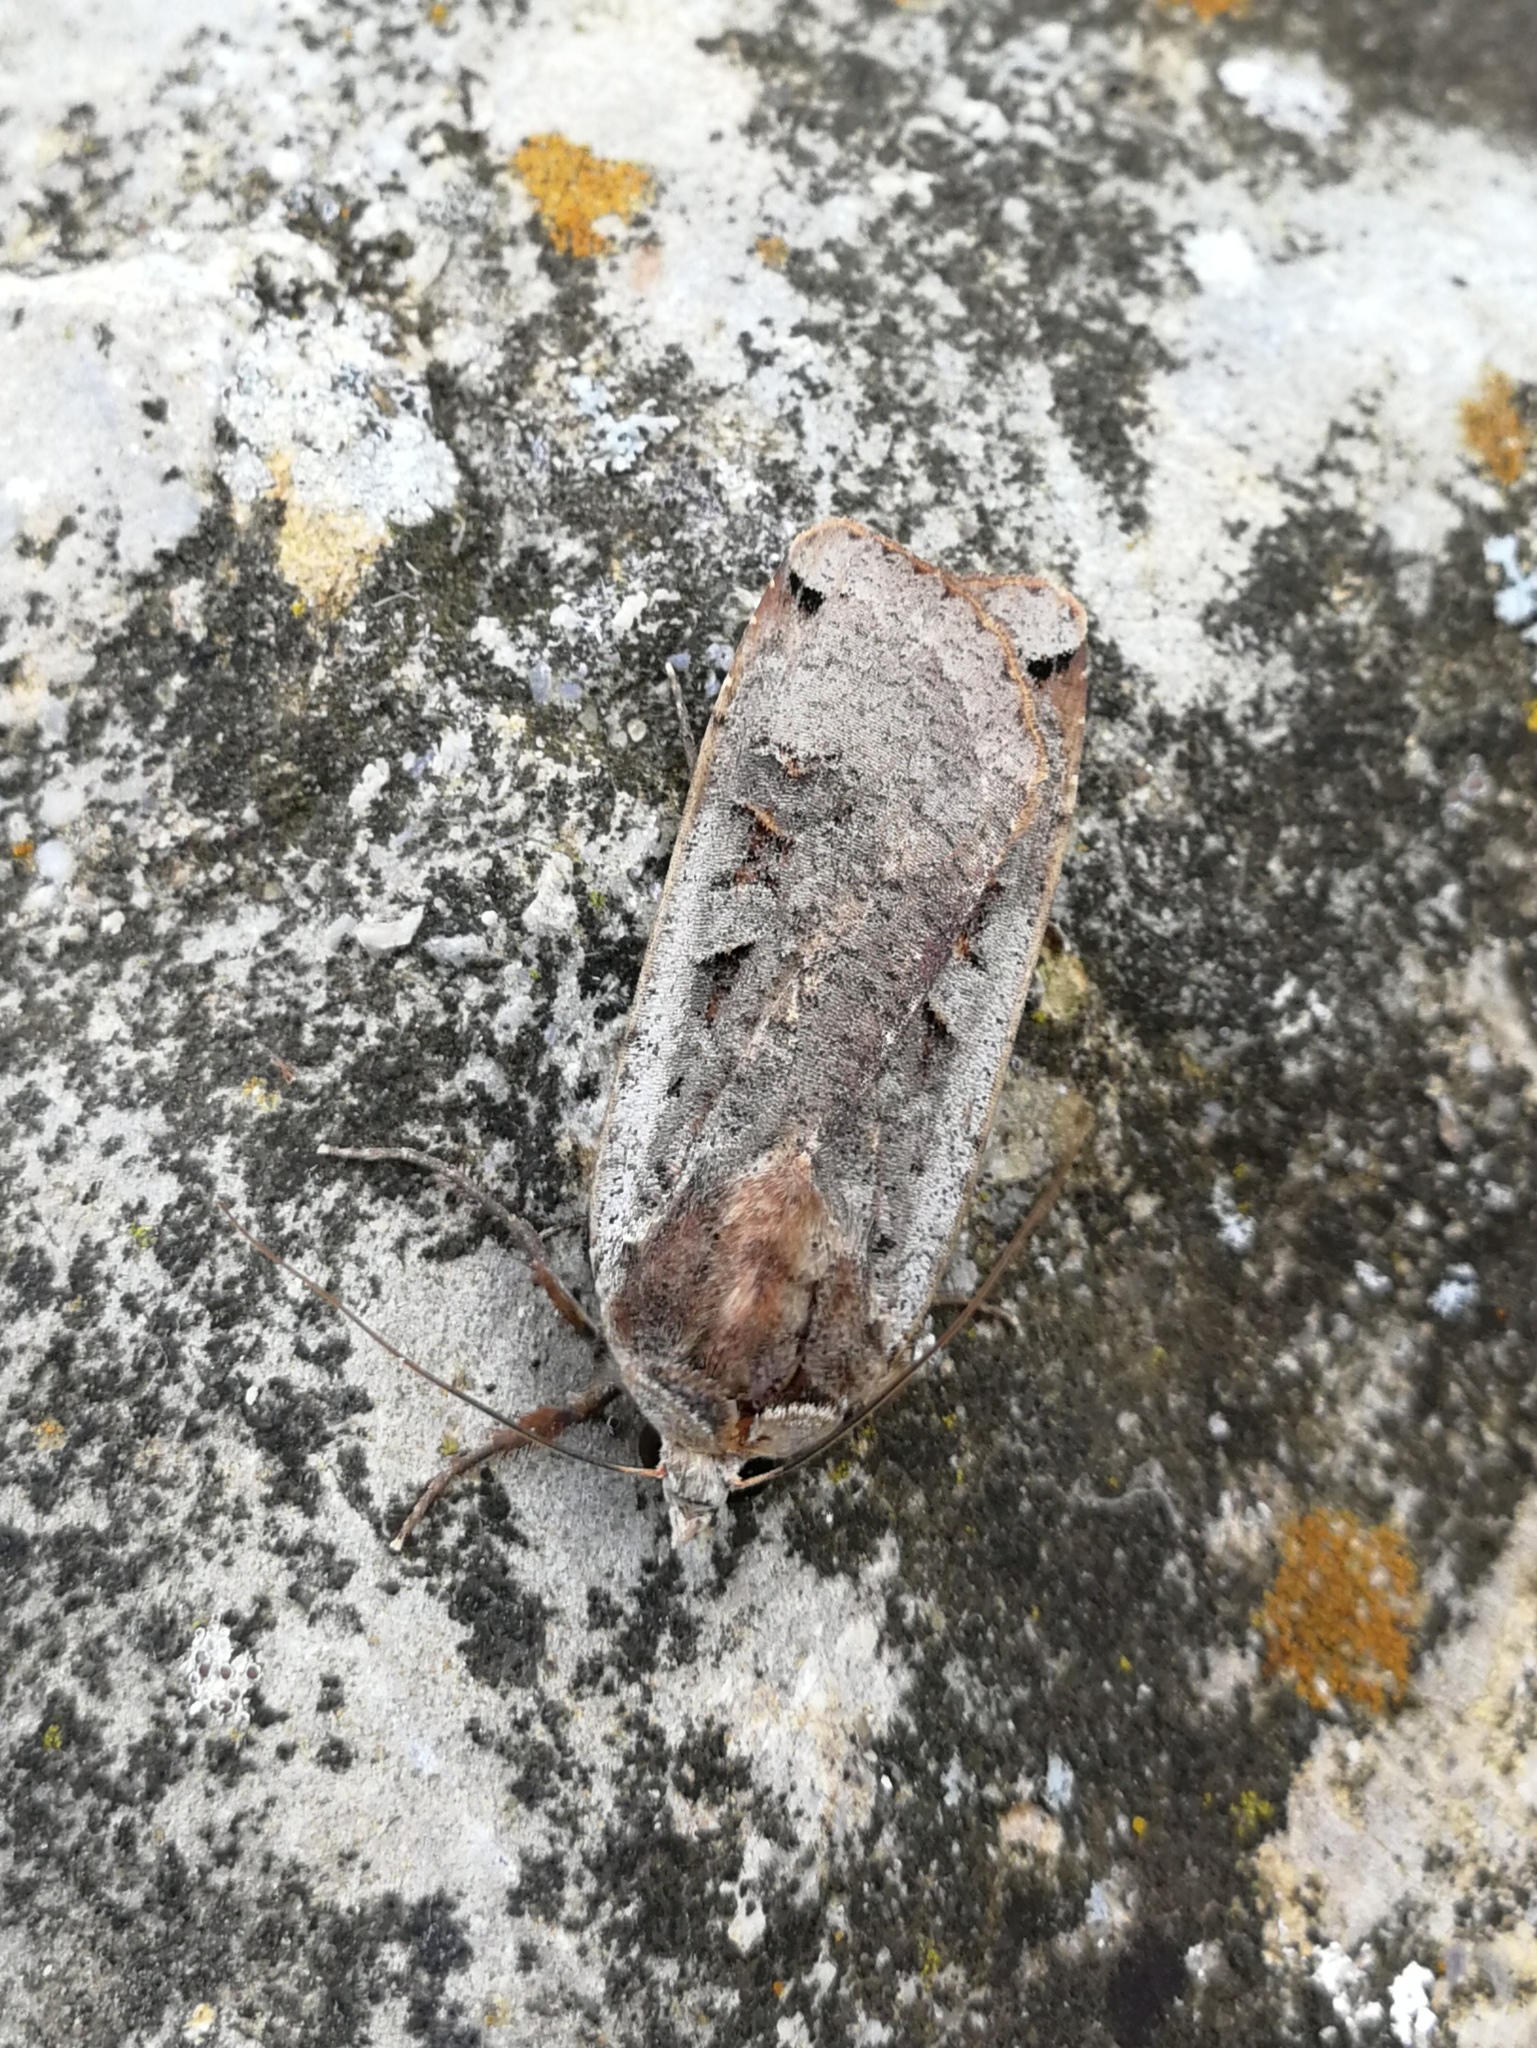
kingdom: Animalia
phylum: Arthropoda
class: Insecta
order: Lepidoptera
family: Noctuidae
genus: Noctua
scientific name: Noctua pronuba
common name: Large yellow underwing
